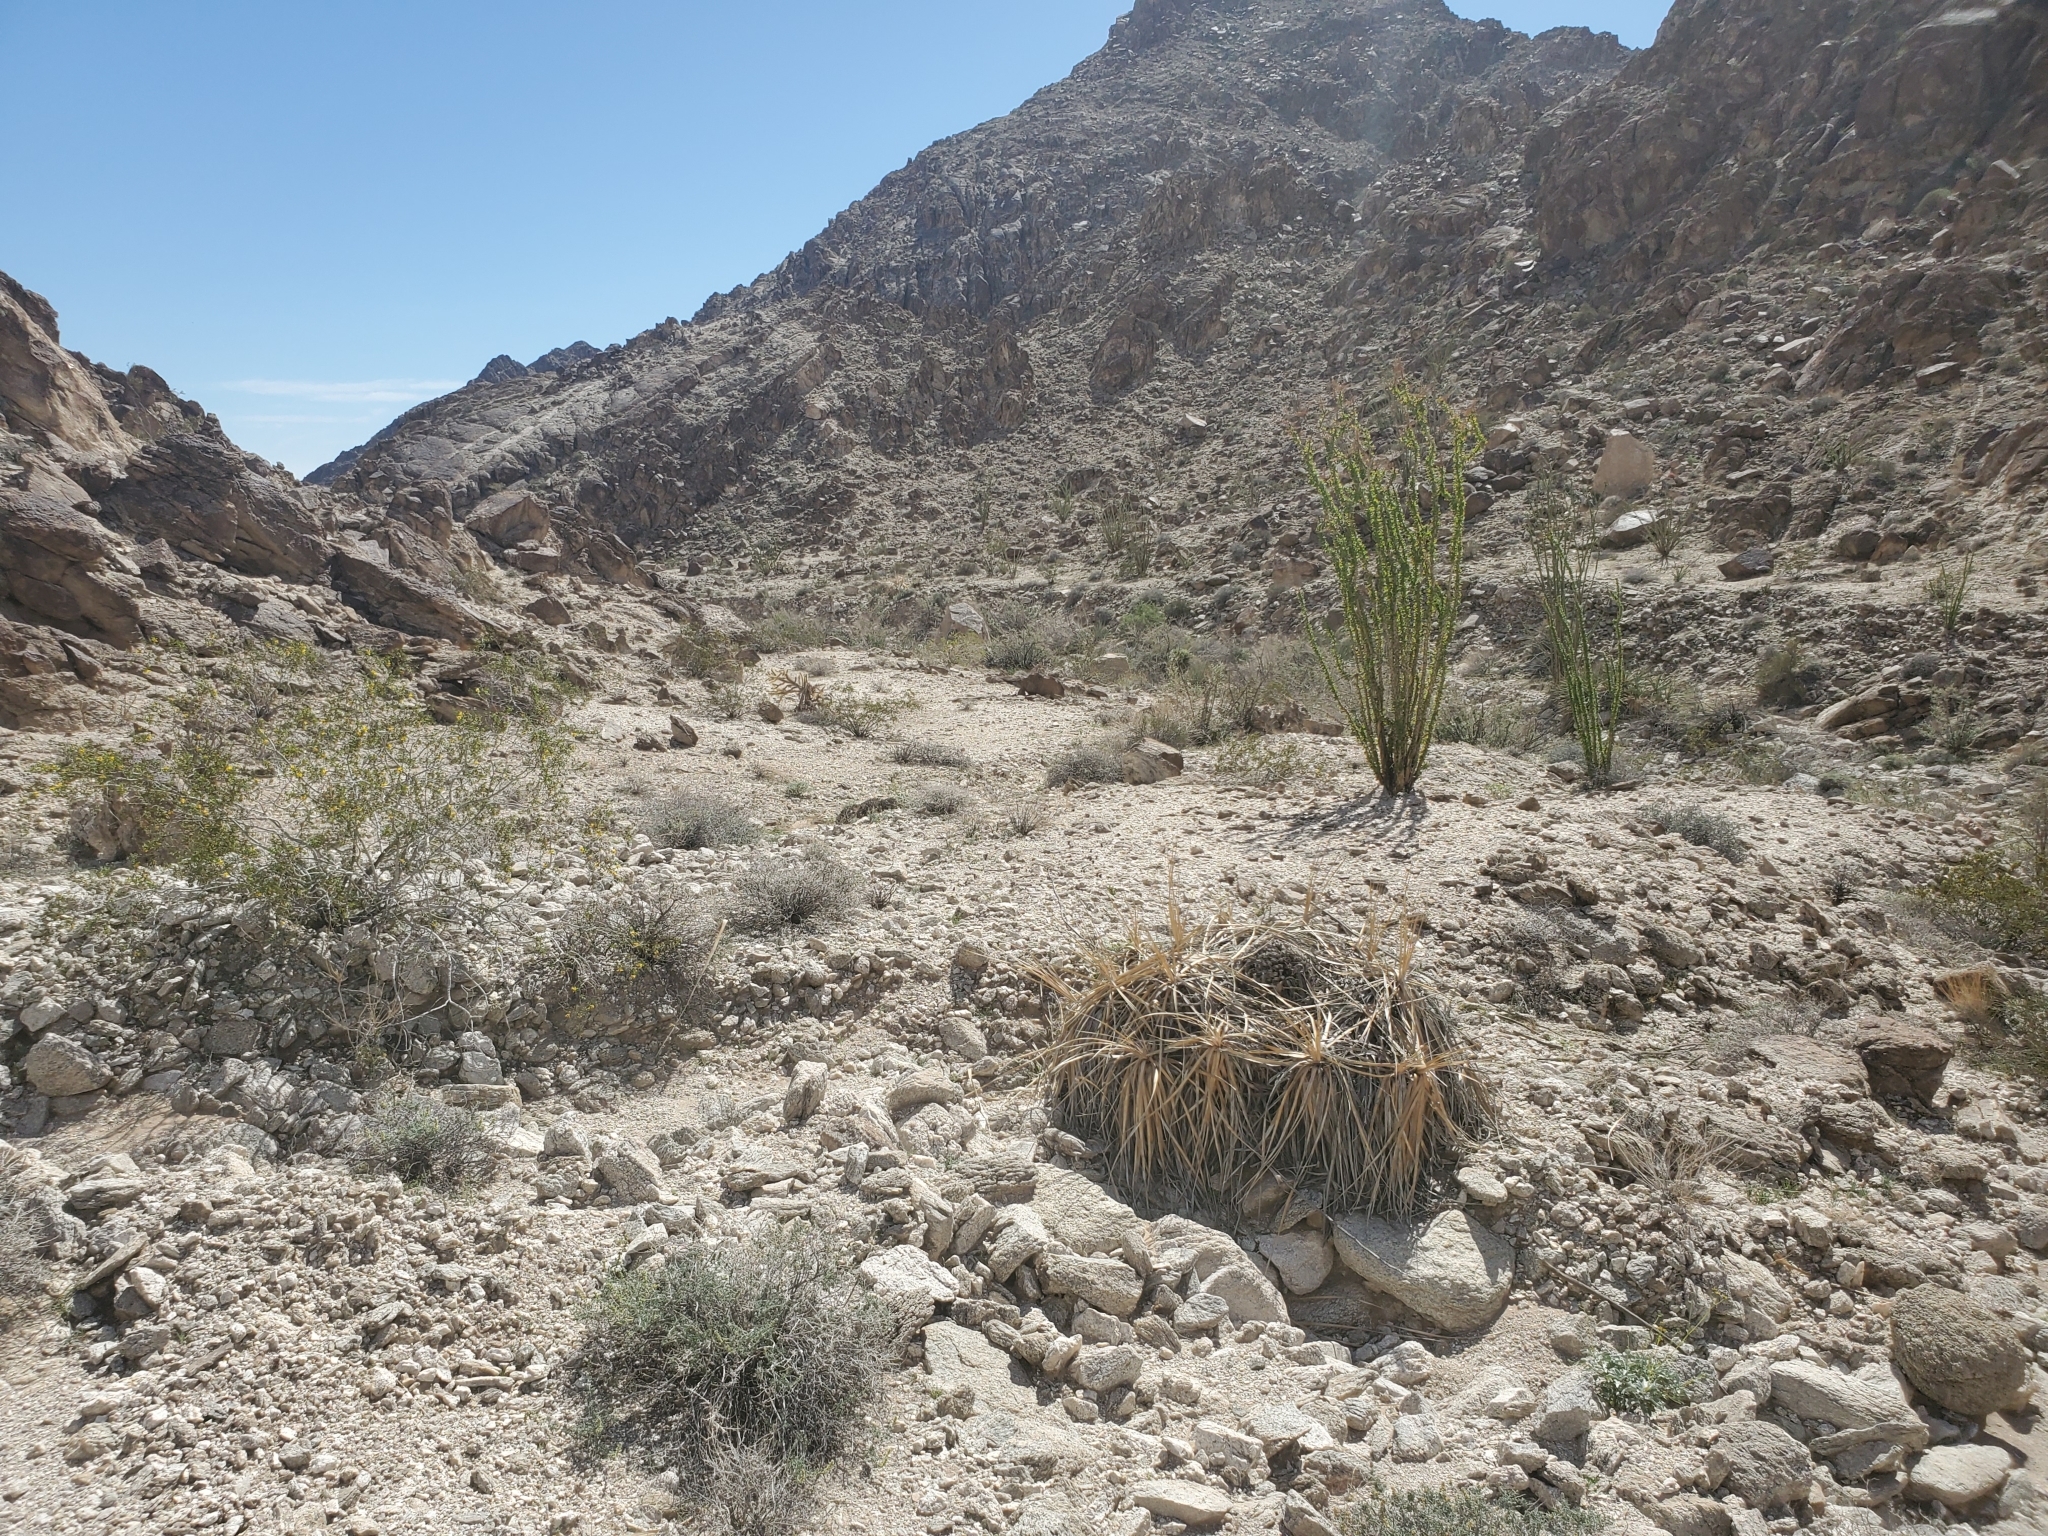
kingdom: Plantae
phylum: Tracheophyta
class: Liliopsida
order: Asparagales
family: Asparagaceae
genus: Nolina
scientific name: Nolina bigelovii
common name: Bigelow bear-grass
